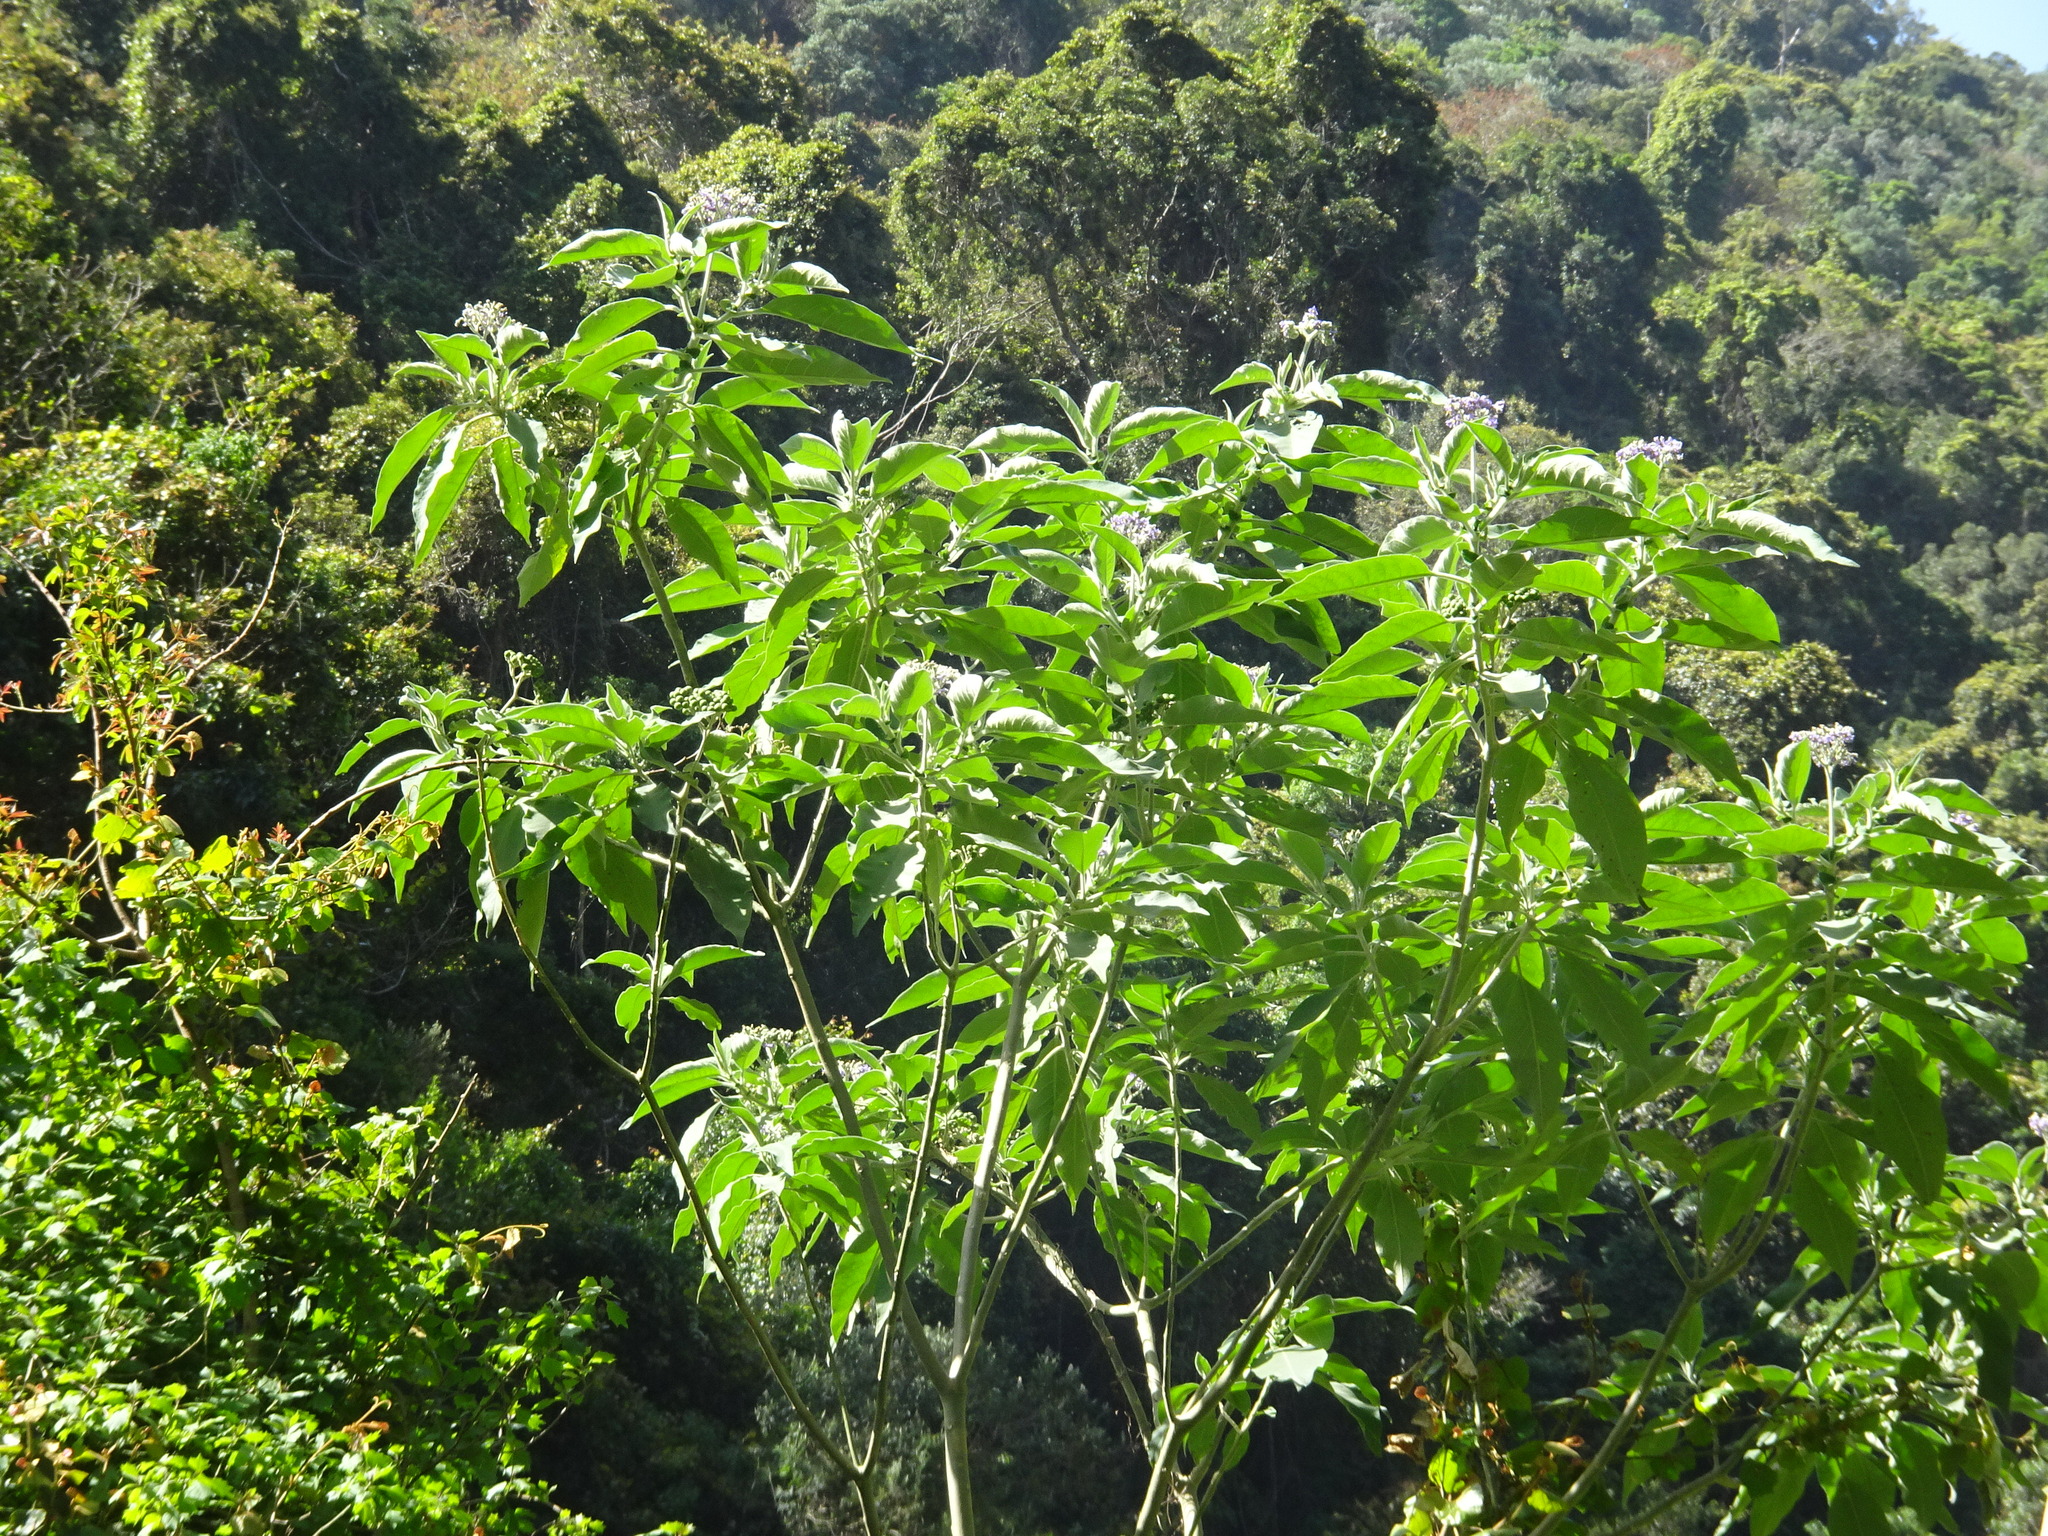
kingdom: Plantae
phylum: Tracheophyta
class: Magnoliopsida
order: Solanales
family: Solanaceae
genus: Solanum
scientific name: Solanum mauritianum
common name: Earleaf nightshade
